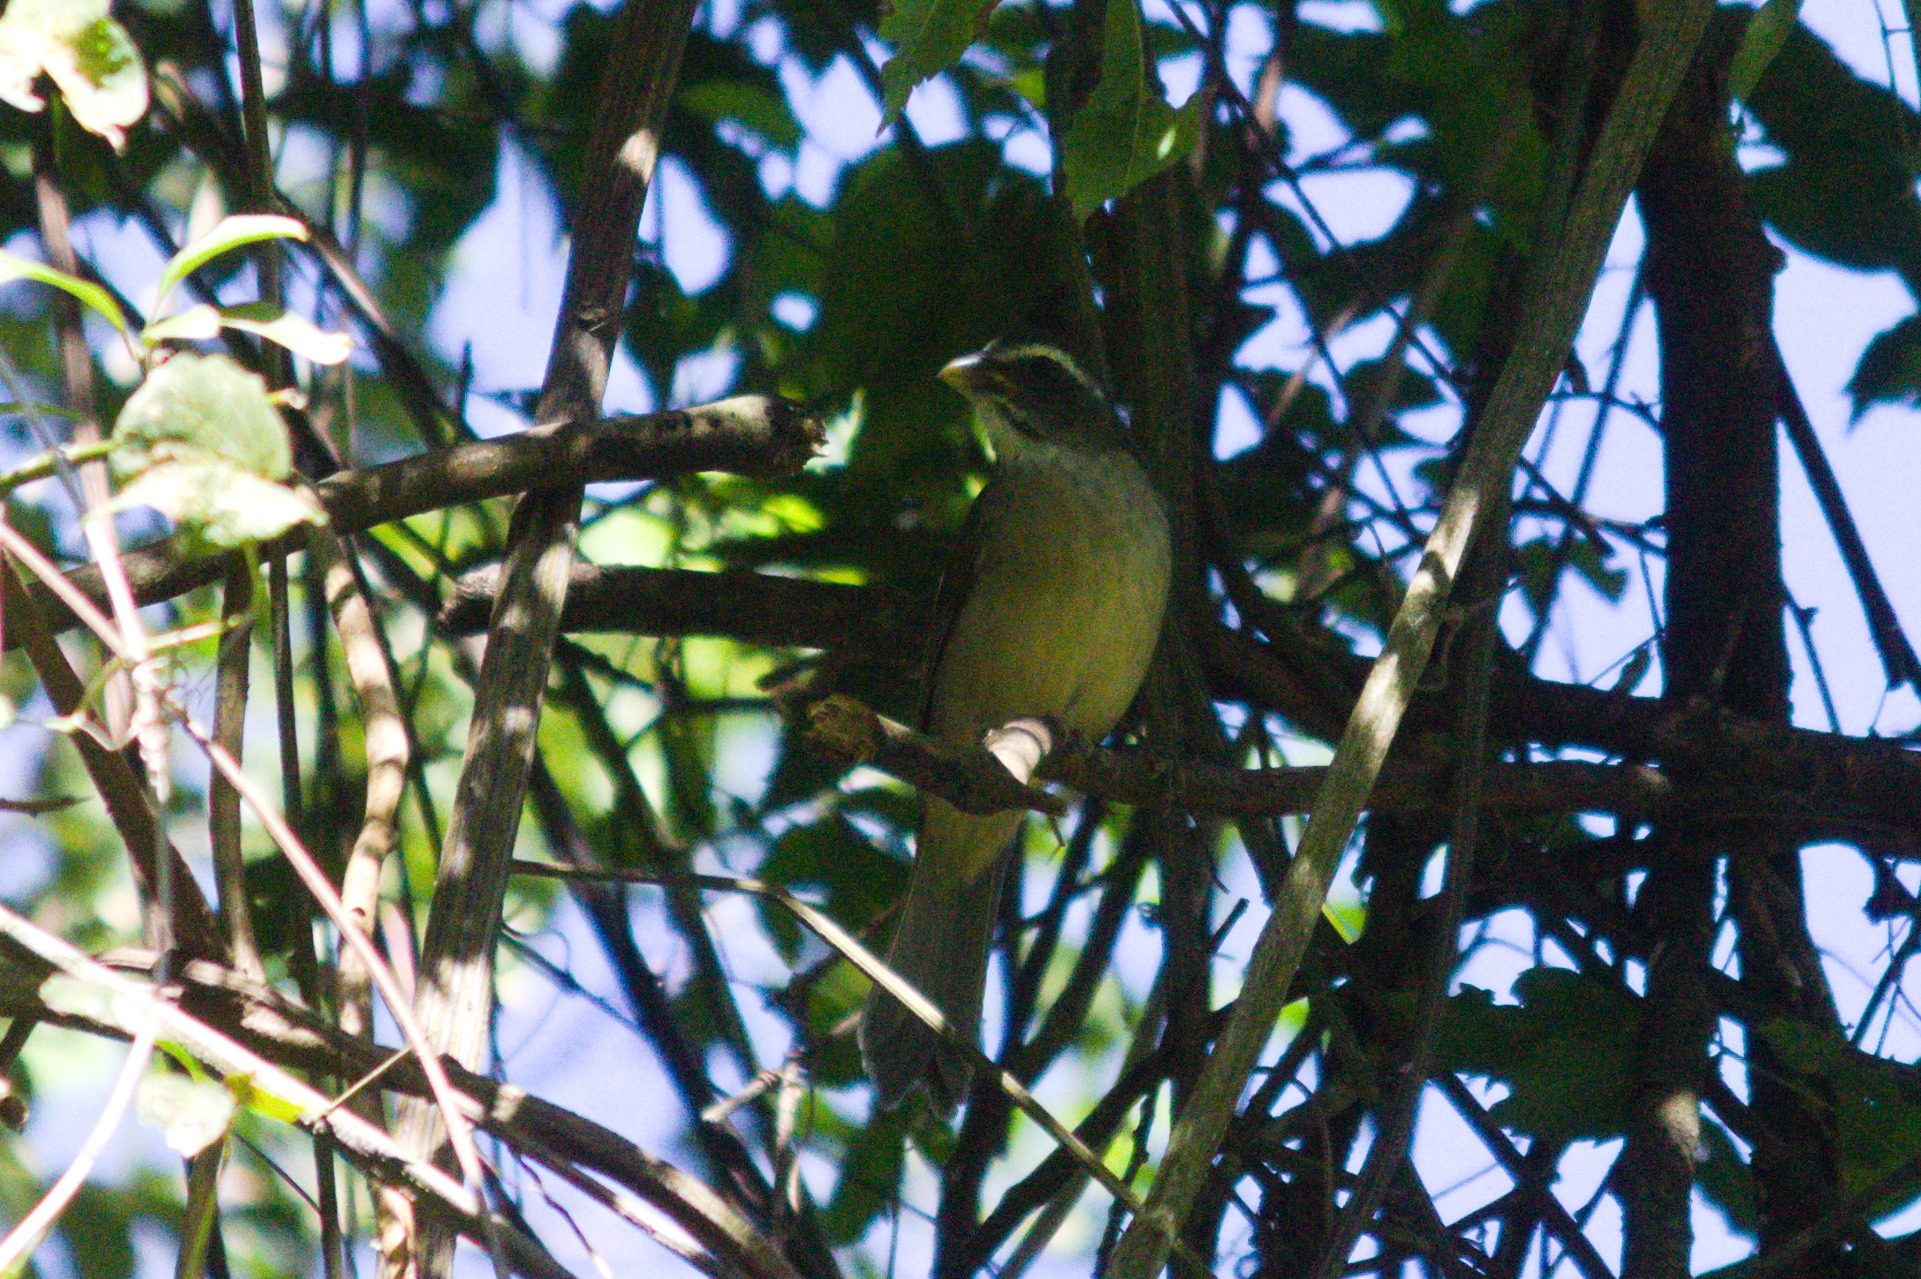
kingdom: Animalia
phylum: Chordata
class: Aves
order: Passeriformes
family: Thraupidae
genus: Saltator
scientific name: Saltator similis
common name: Green-winged saltator
